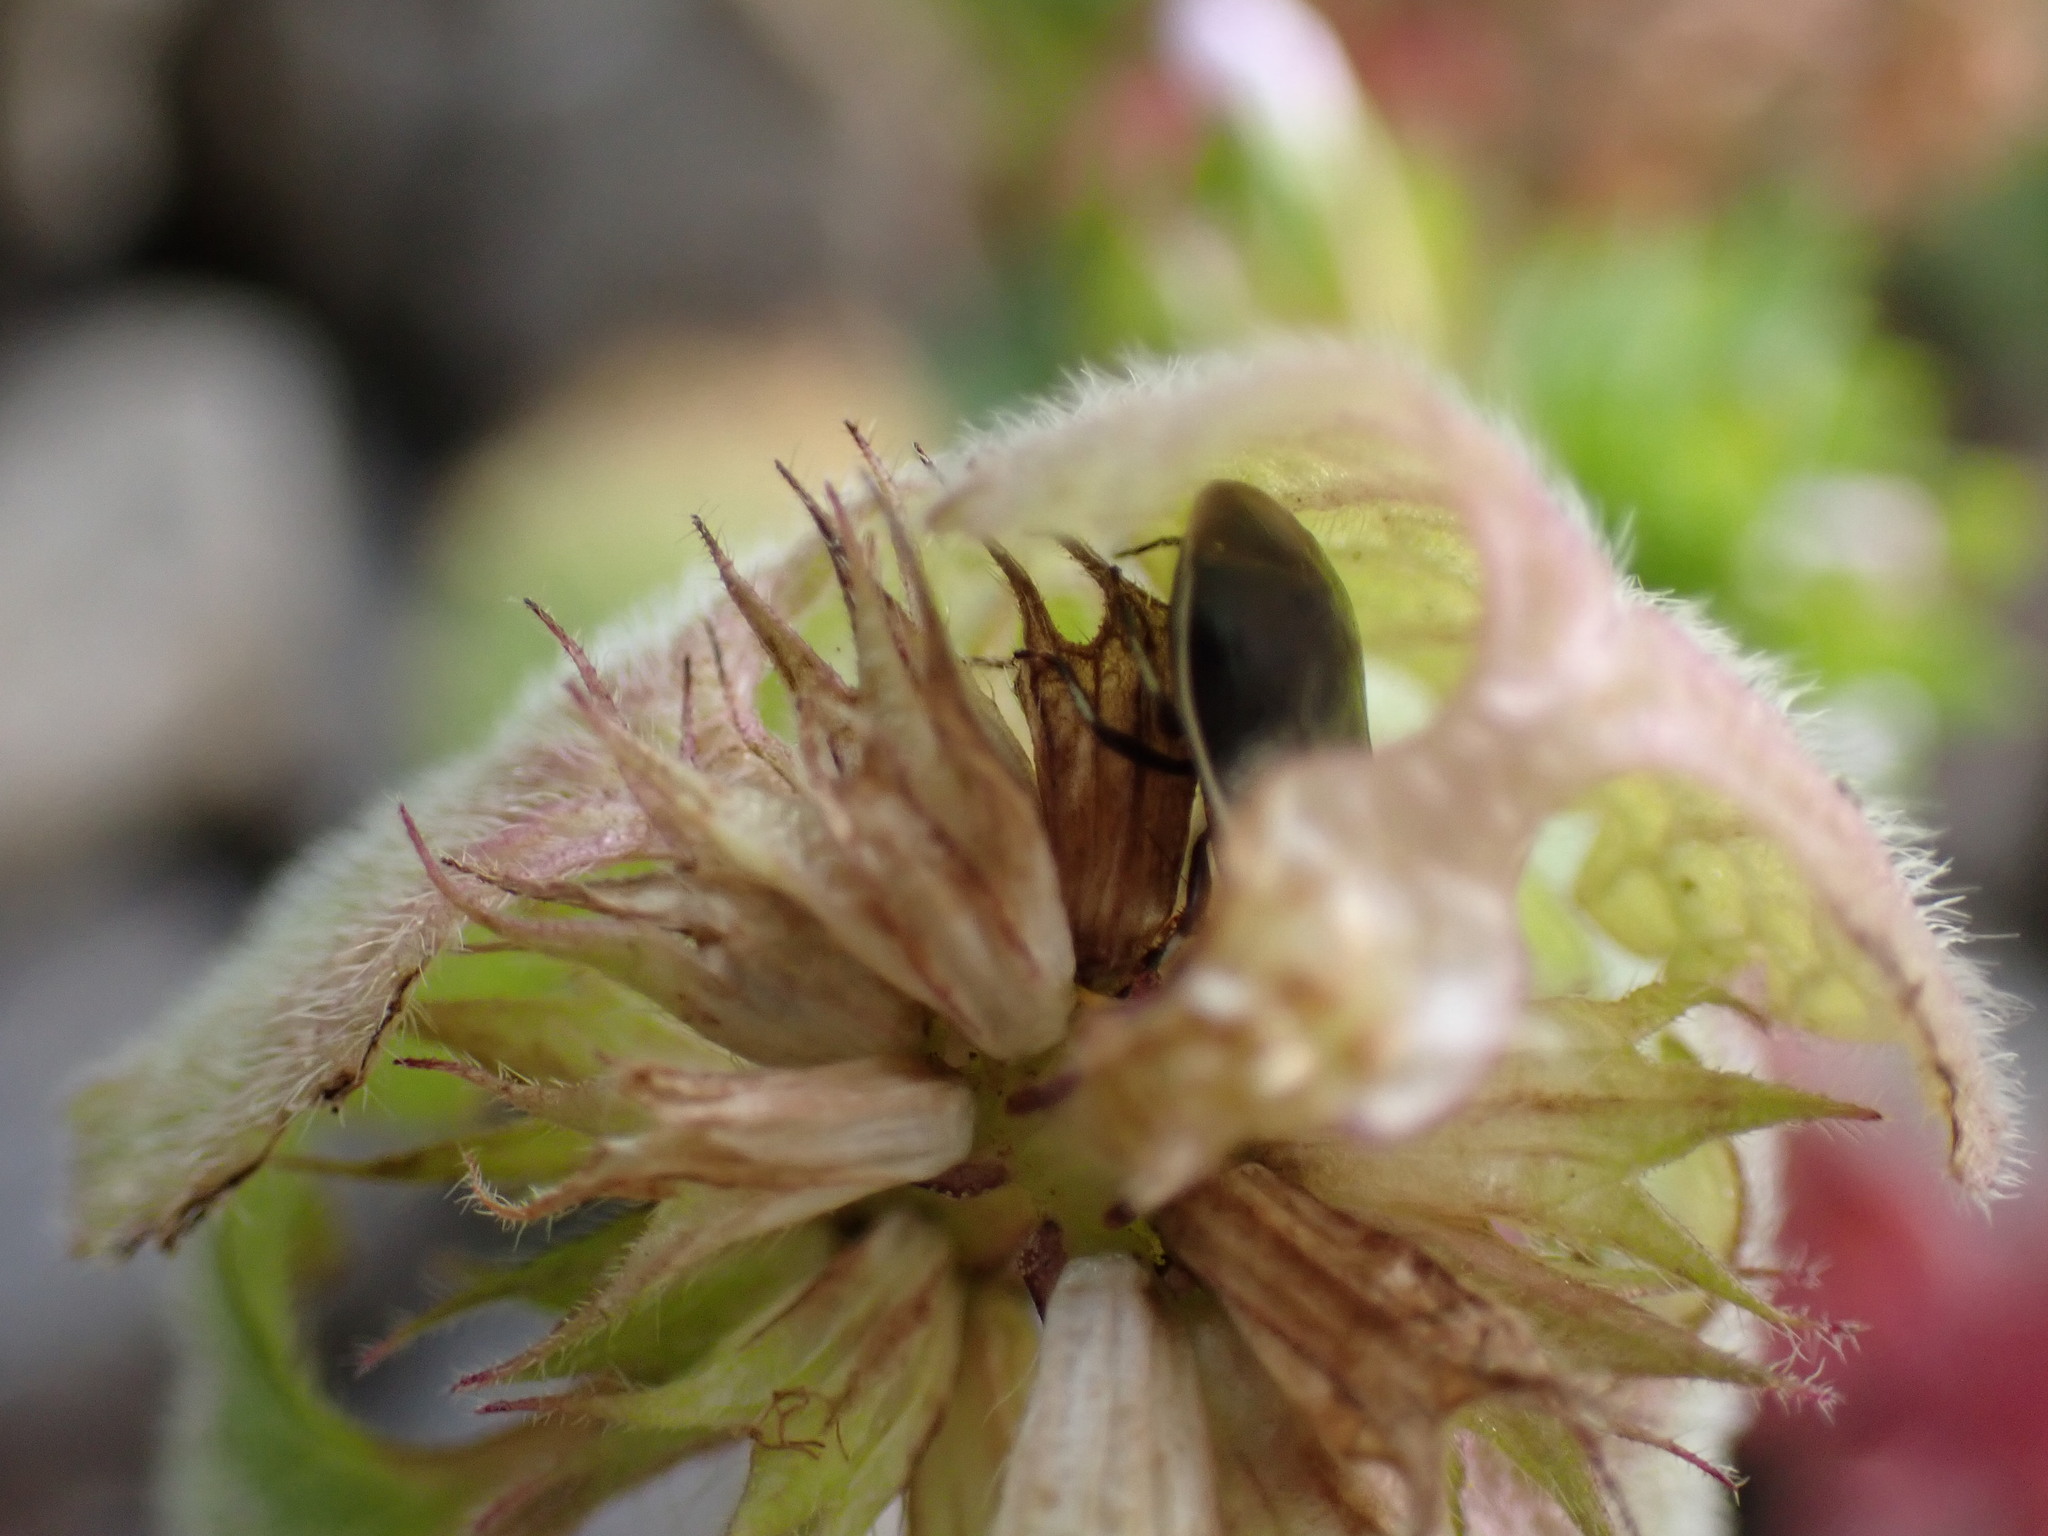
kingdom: Animalia
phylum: Arthropoda
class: Insecta
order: Hemiptera
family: Cydnidae
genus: Sehirus
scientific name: Sehirus cinctus
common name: White-margined burrower bug
